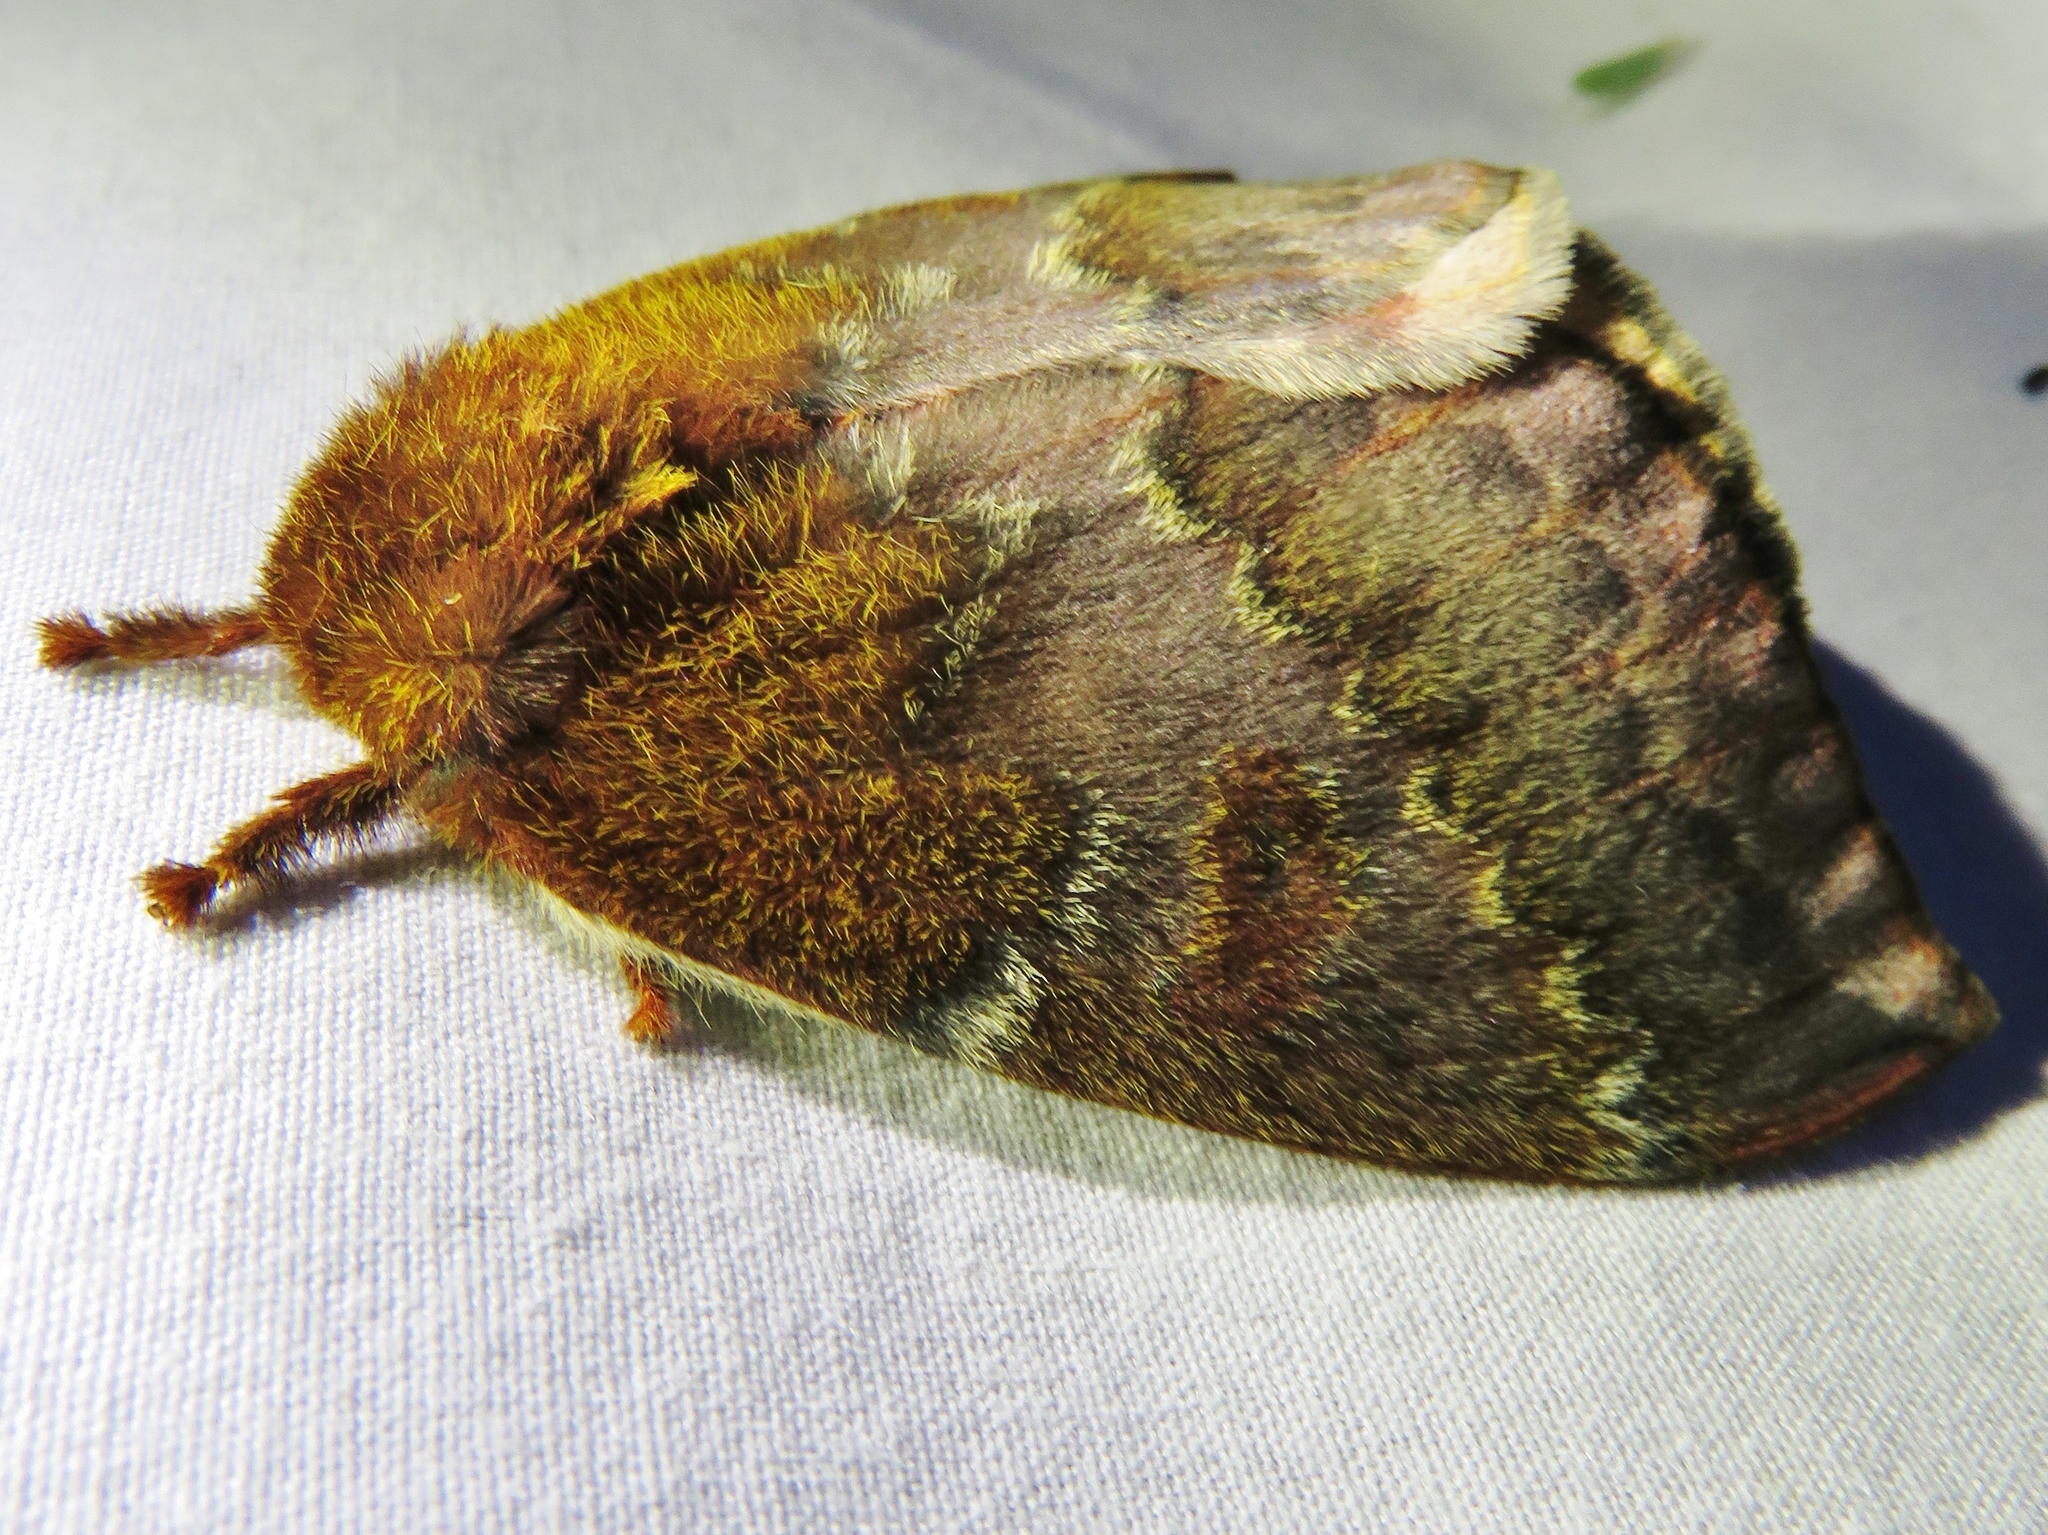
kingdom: Animalia
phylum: Arthropoda
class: Insecta
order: Lepidoptera
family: Saturniidae
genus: Automeris
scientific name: Automeris io
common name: Io moth
